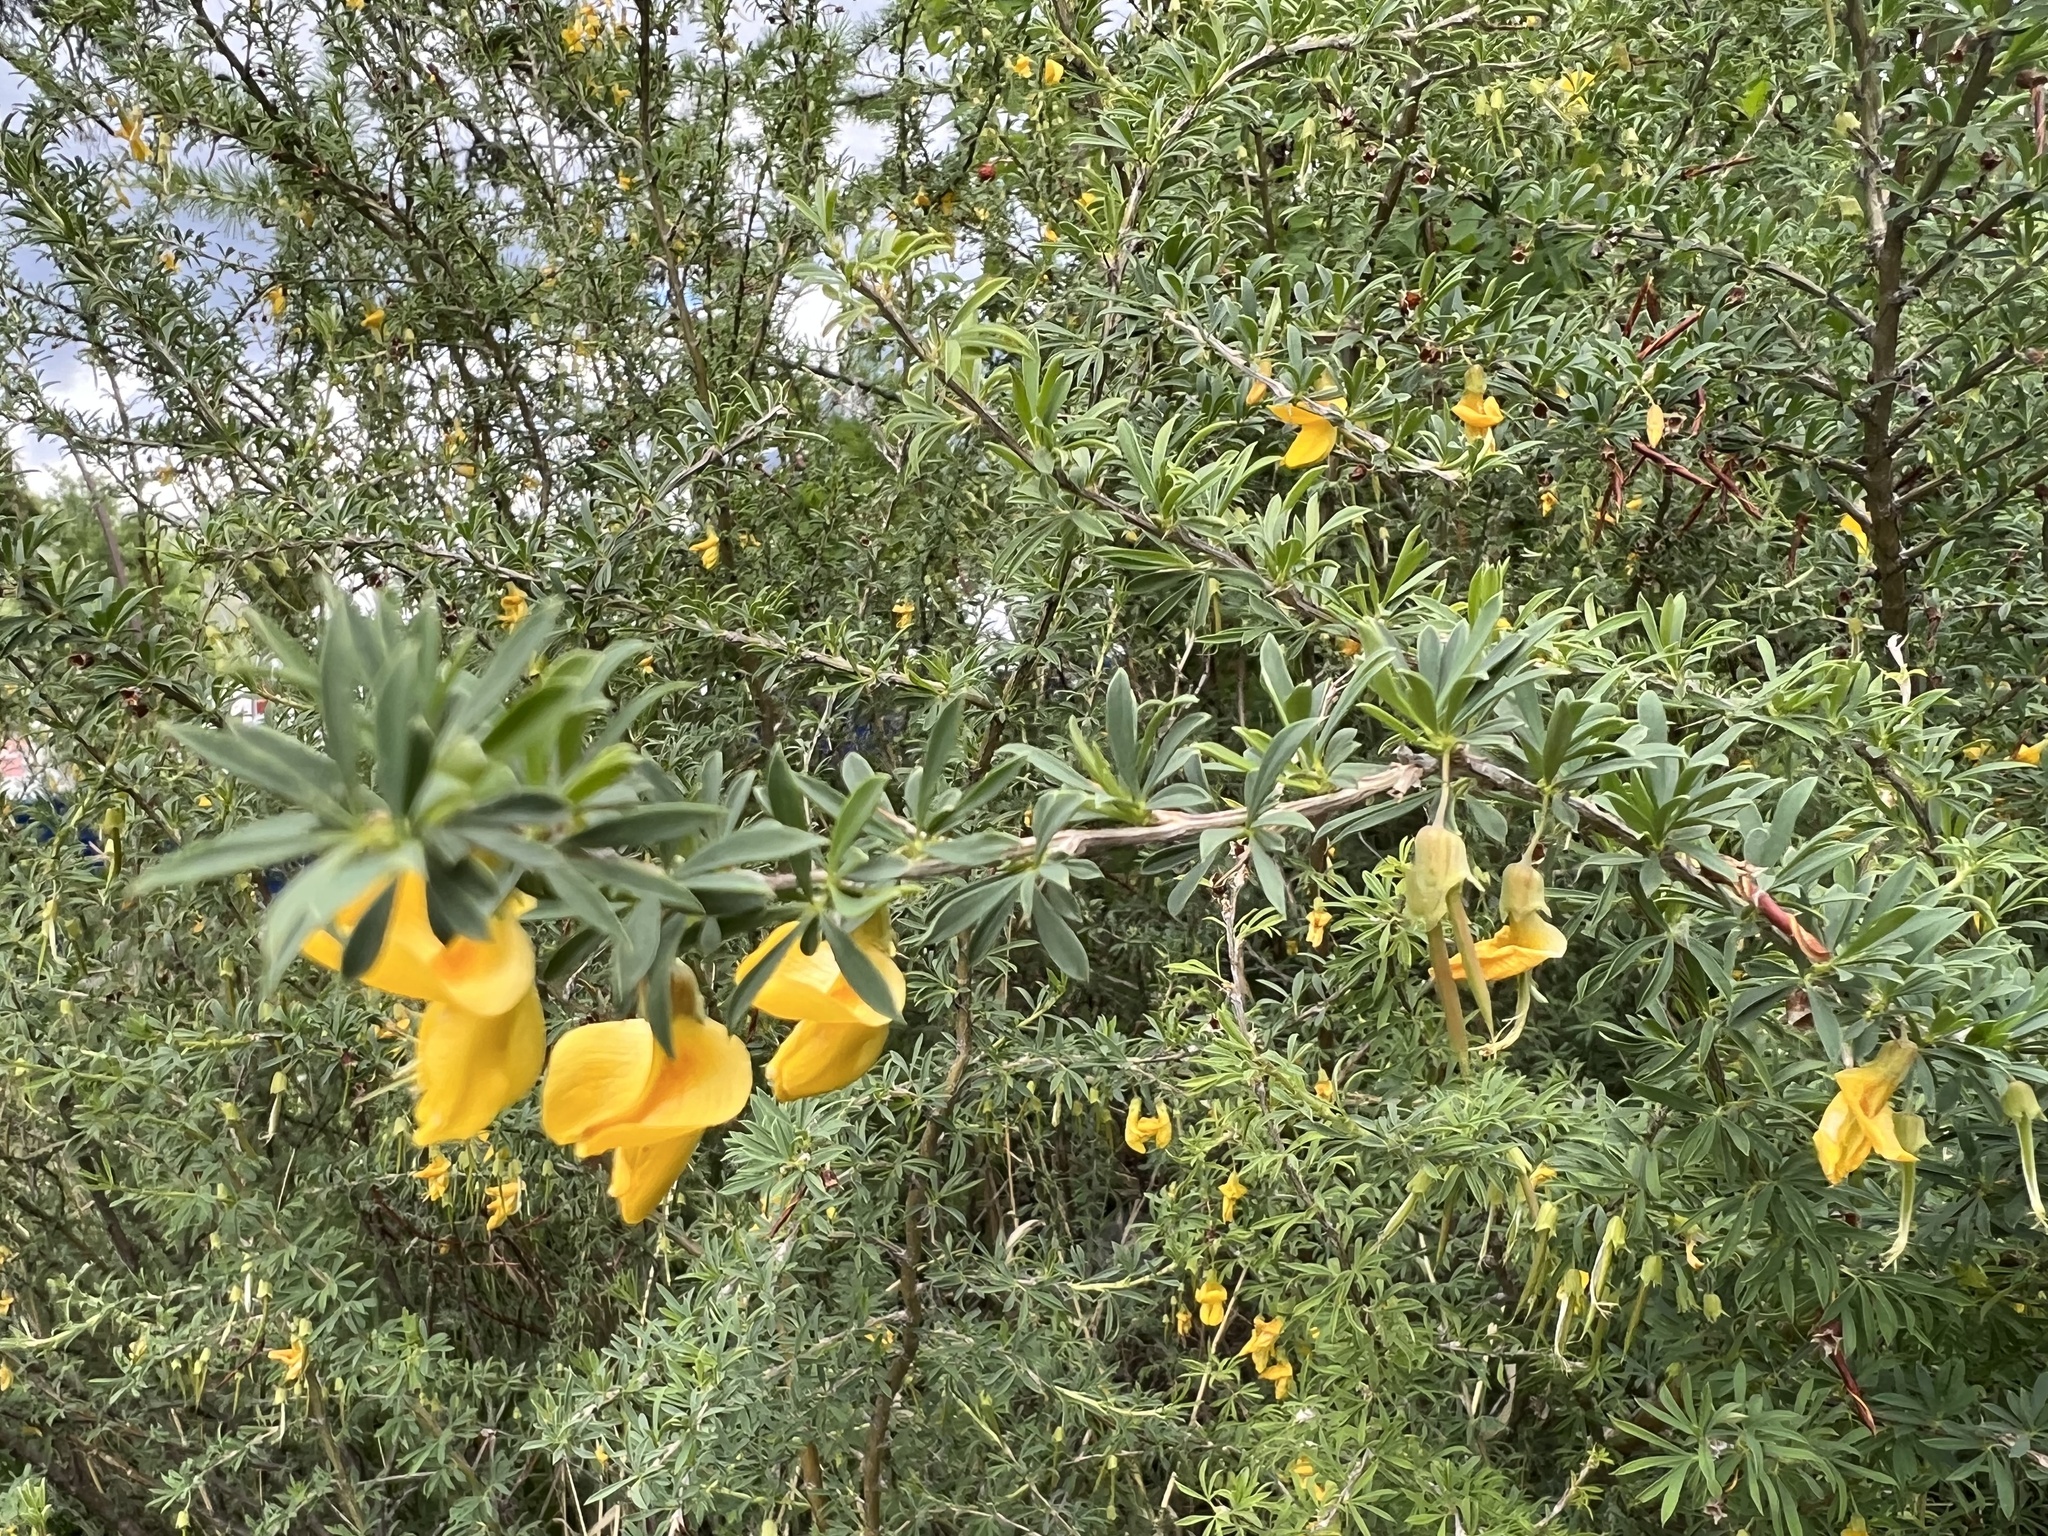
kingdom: Plantae
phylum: Tracheophyta
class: Magnoliopsida
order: Fabales
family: Fabaceae
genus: Caragana
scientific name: Caragana pygmaea
